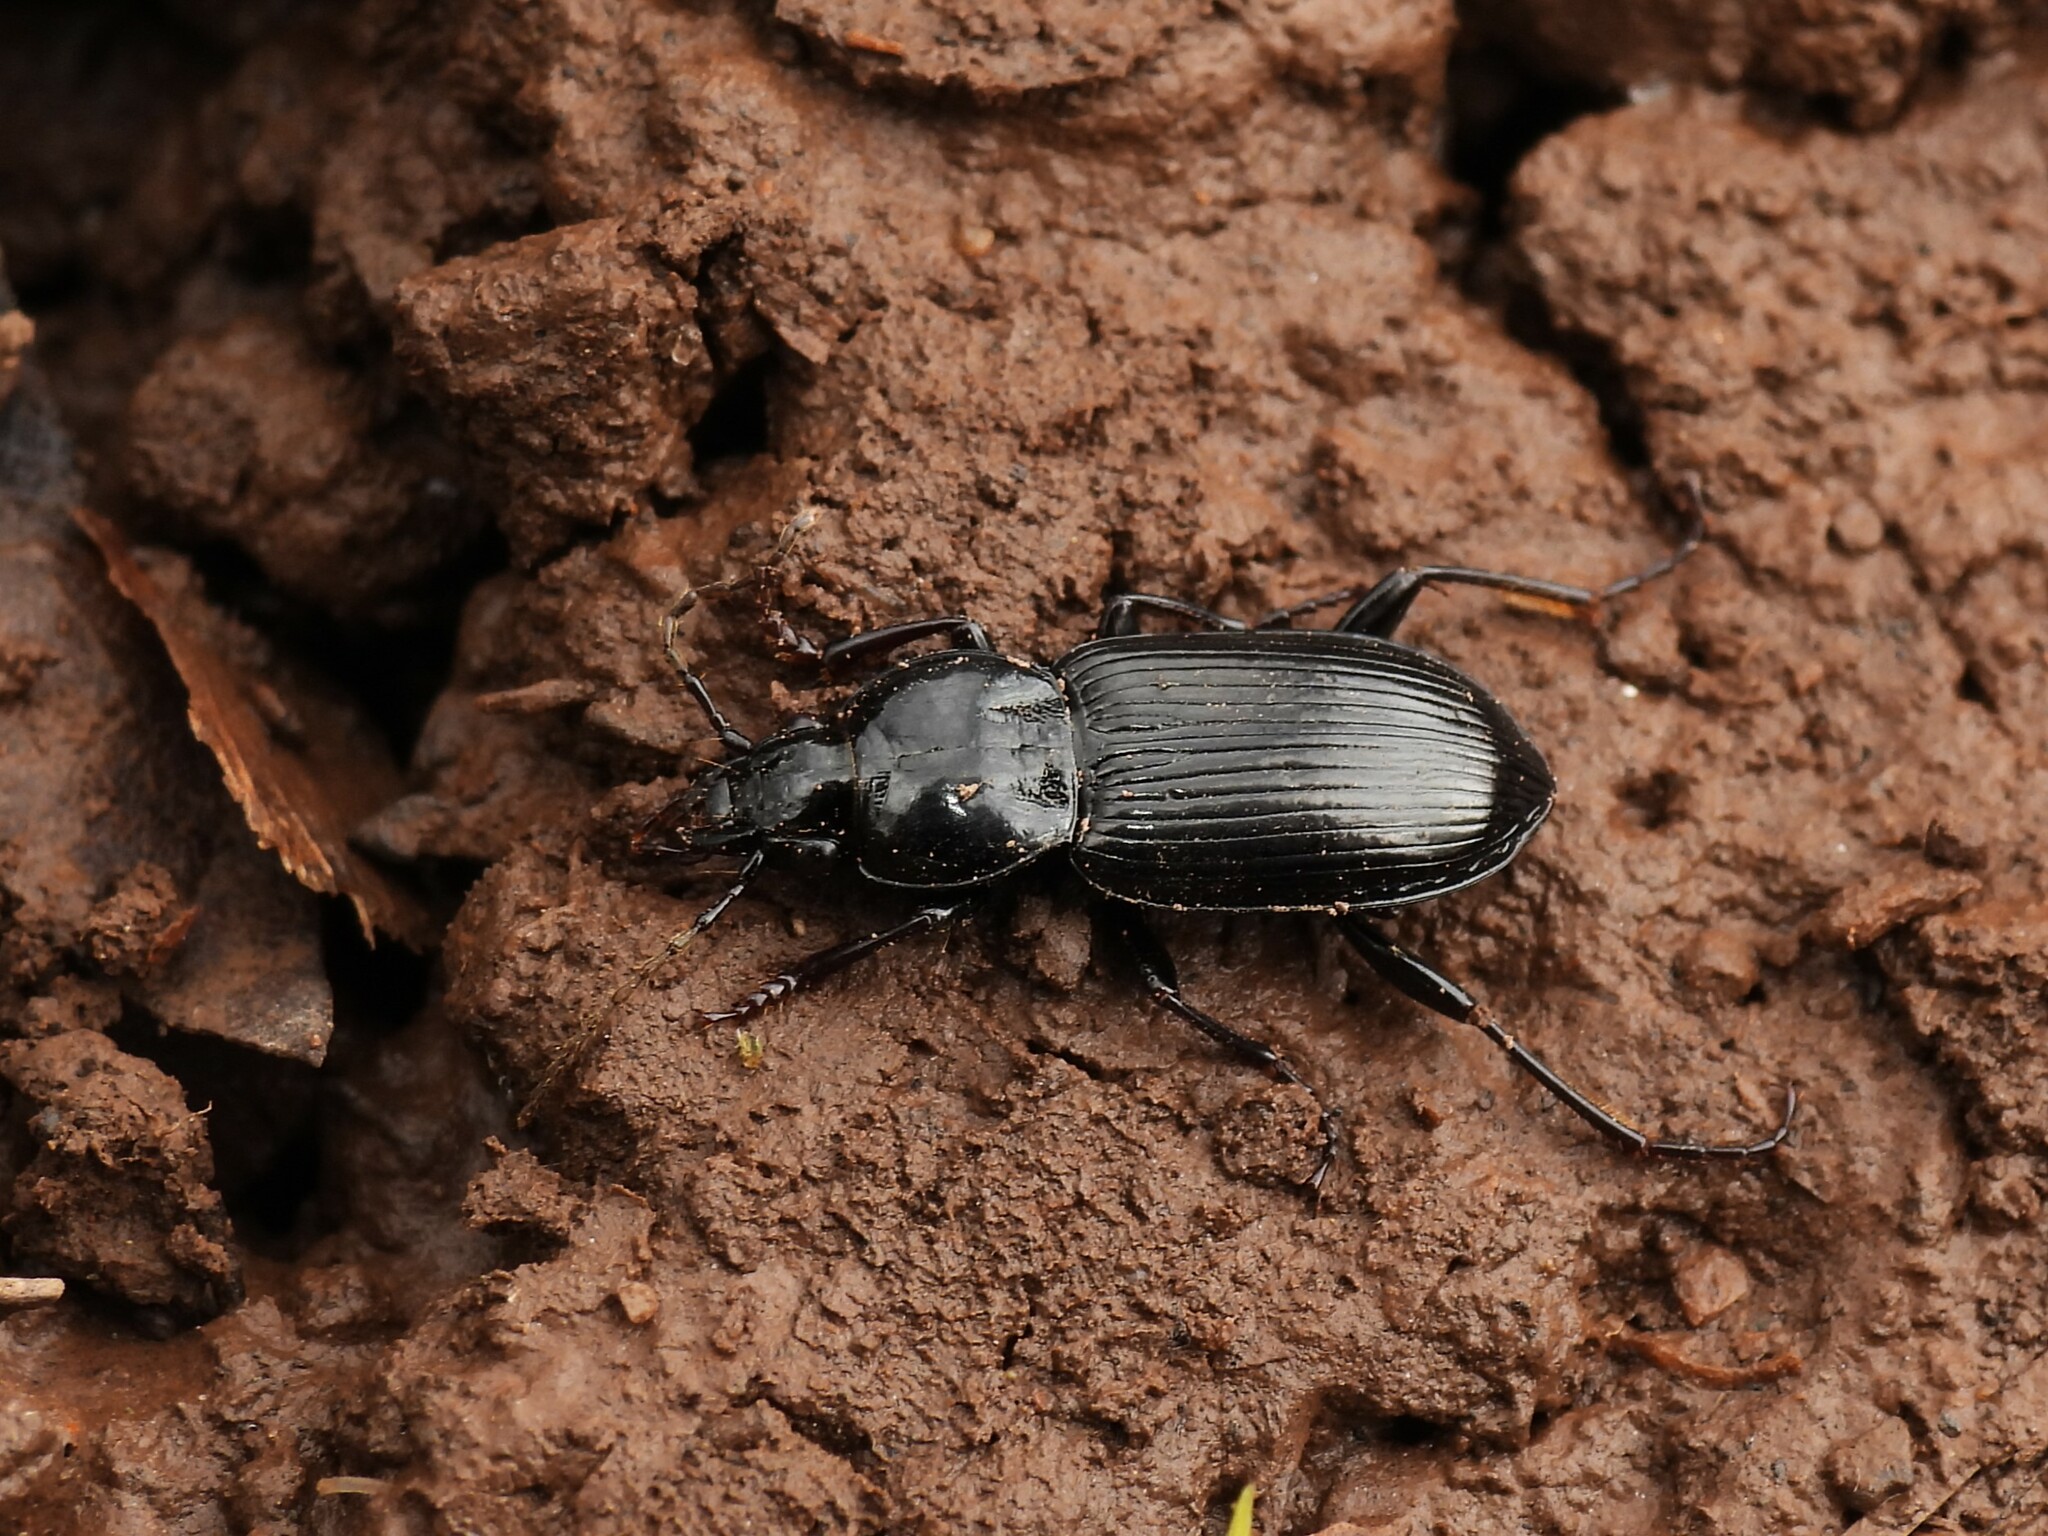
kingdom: Animalia
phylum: Arthropoda
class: Insecta
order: Coleoptera
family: Carabidae
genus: Pterostichus
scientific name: Pterostichus mutus
